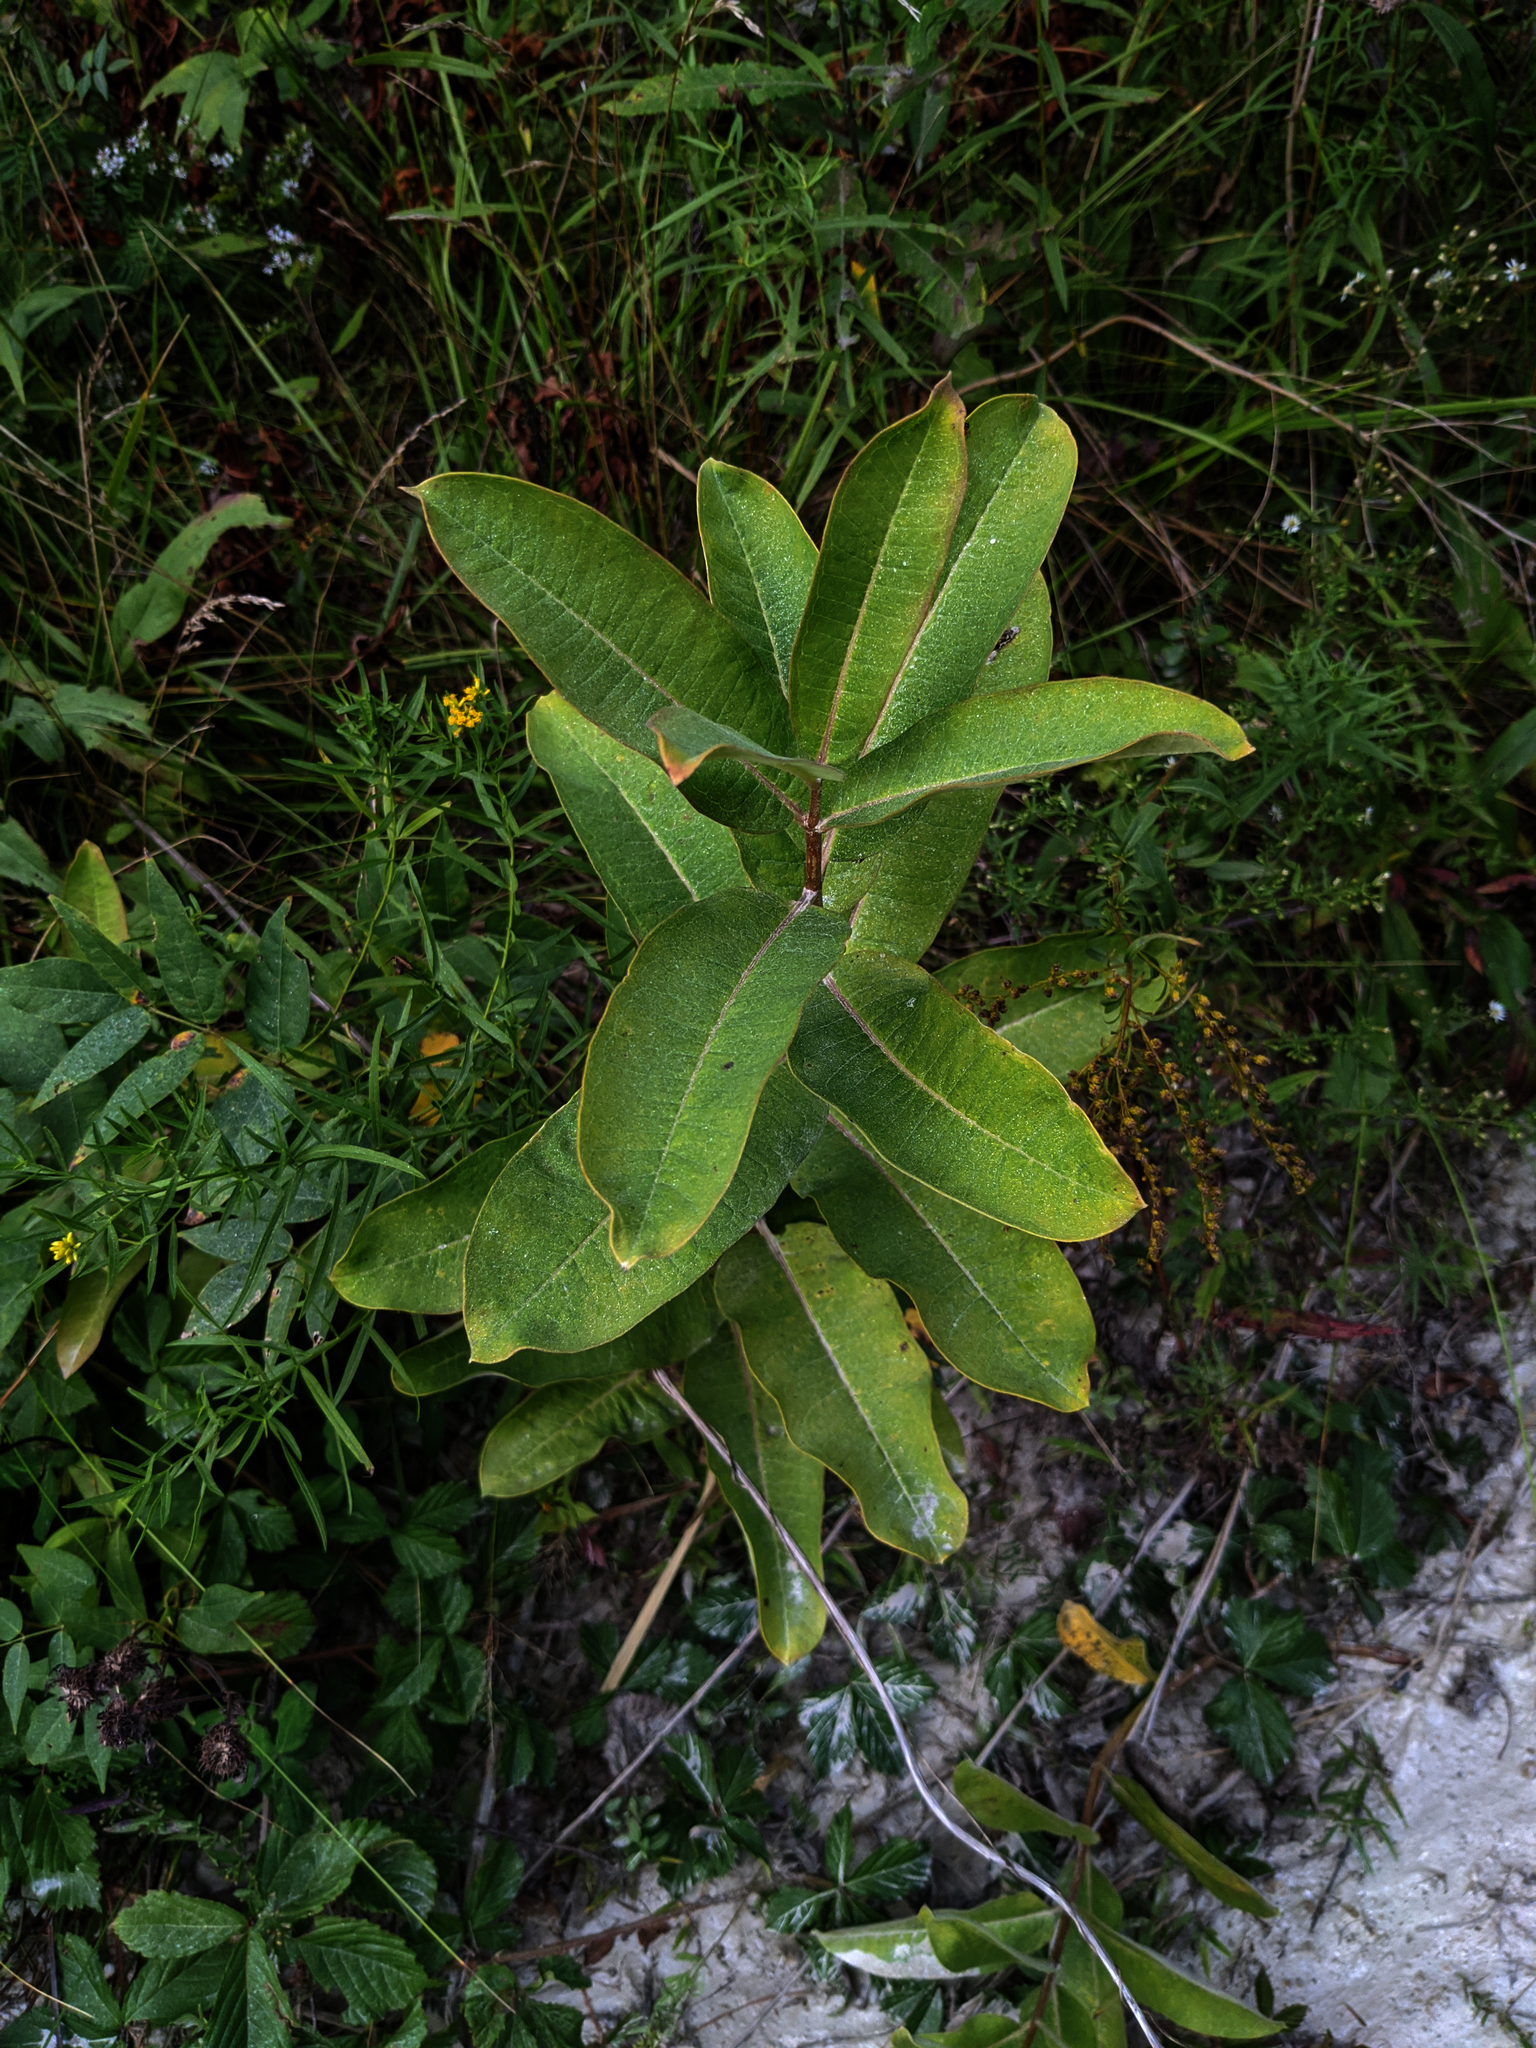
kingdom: Plantae
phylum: Tracheophyta
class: Magnoliopsida
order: Gentianales
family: Apocynaceae
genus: Asclepias
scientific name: Asclepias syriaca
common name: Common milkweed
